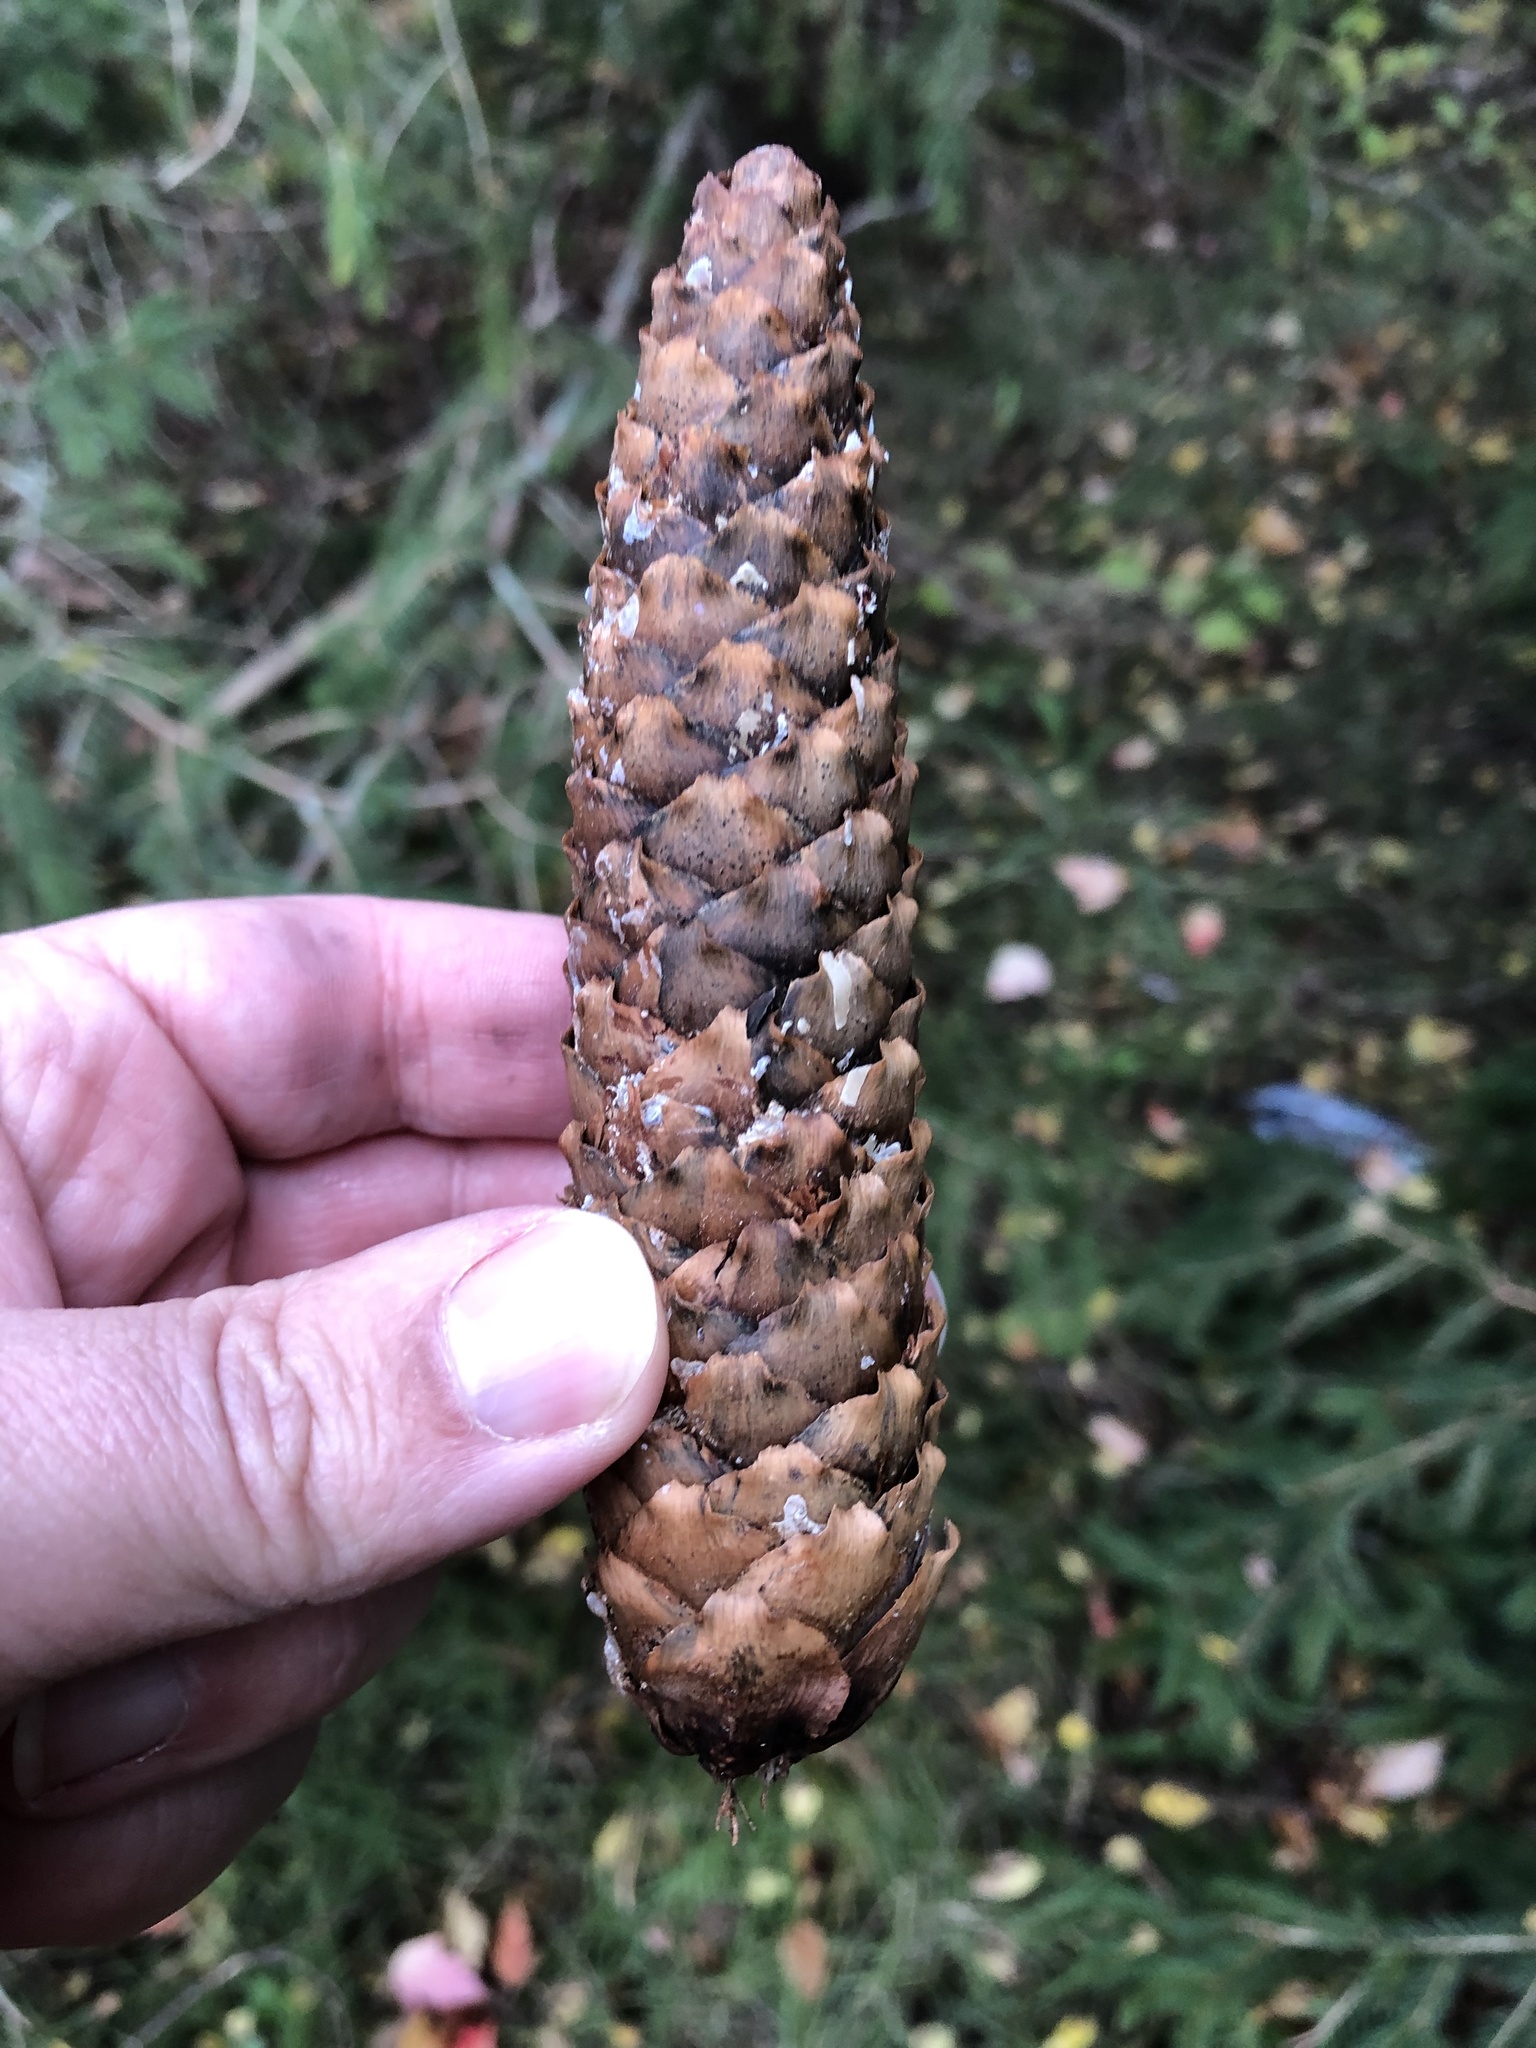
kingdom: Plantae
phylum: Tracheophyta
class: Pinopsida
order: Pinales
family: Pinaceae
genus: Picea
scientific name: Picea abies
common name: Norway spruce
